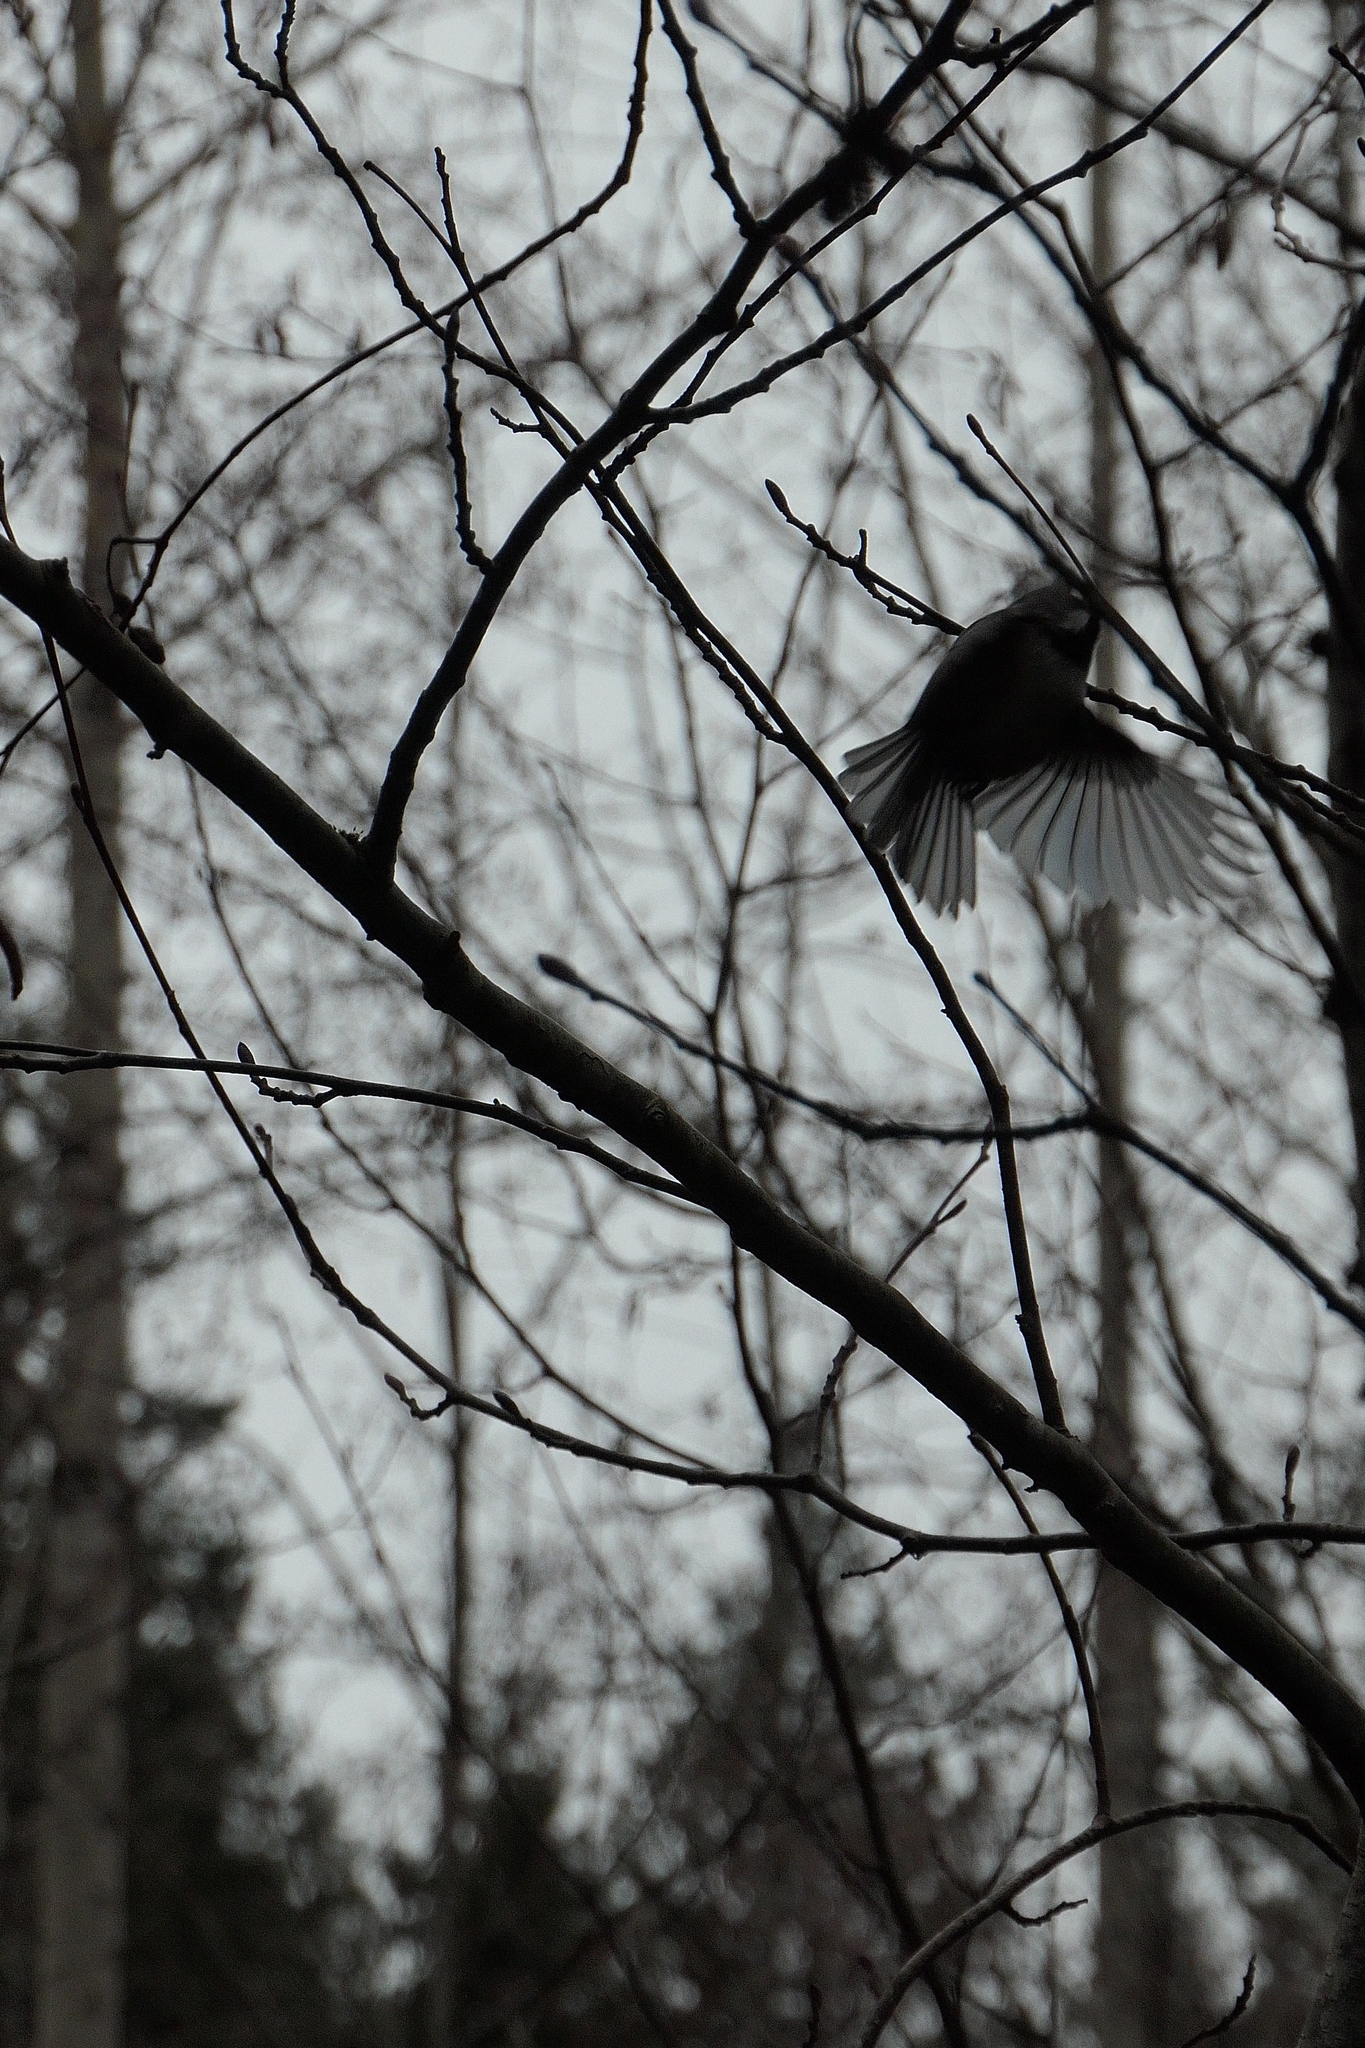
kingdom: Animalia
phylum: Chordata
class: Aves
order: Passeriformes
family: Paridae
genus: Poecile
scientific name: Poecile atricapillus
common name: Black-capped chickadee
